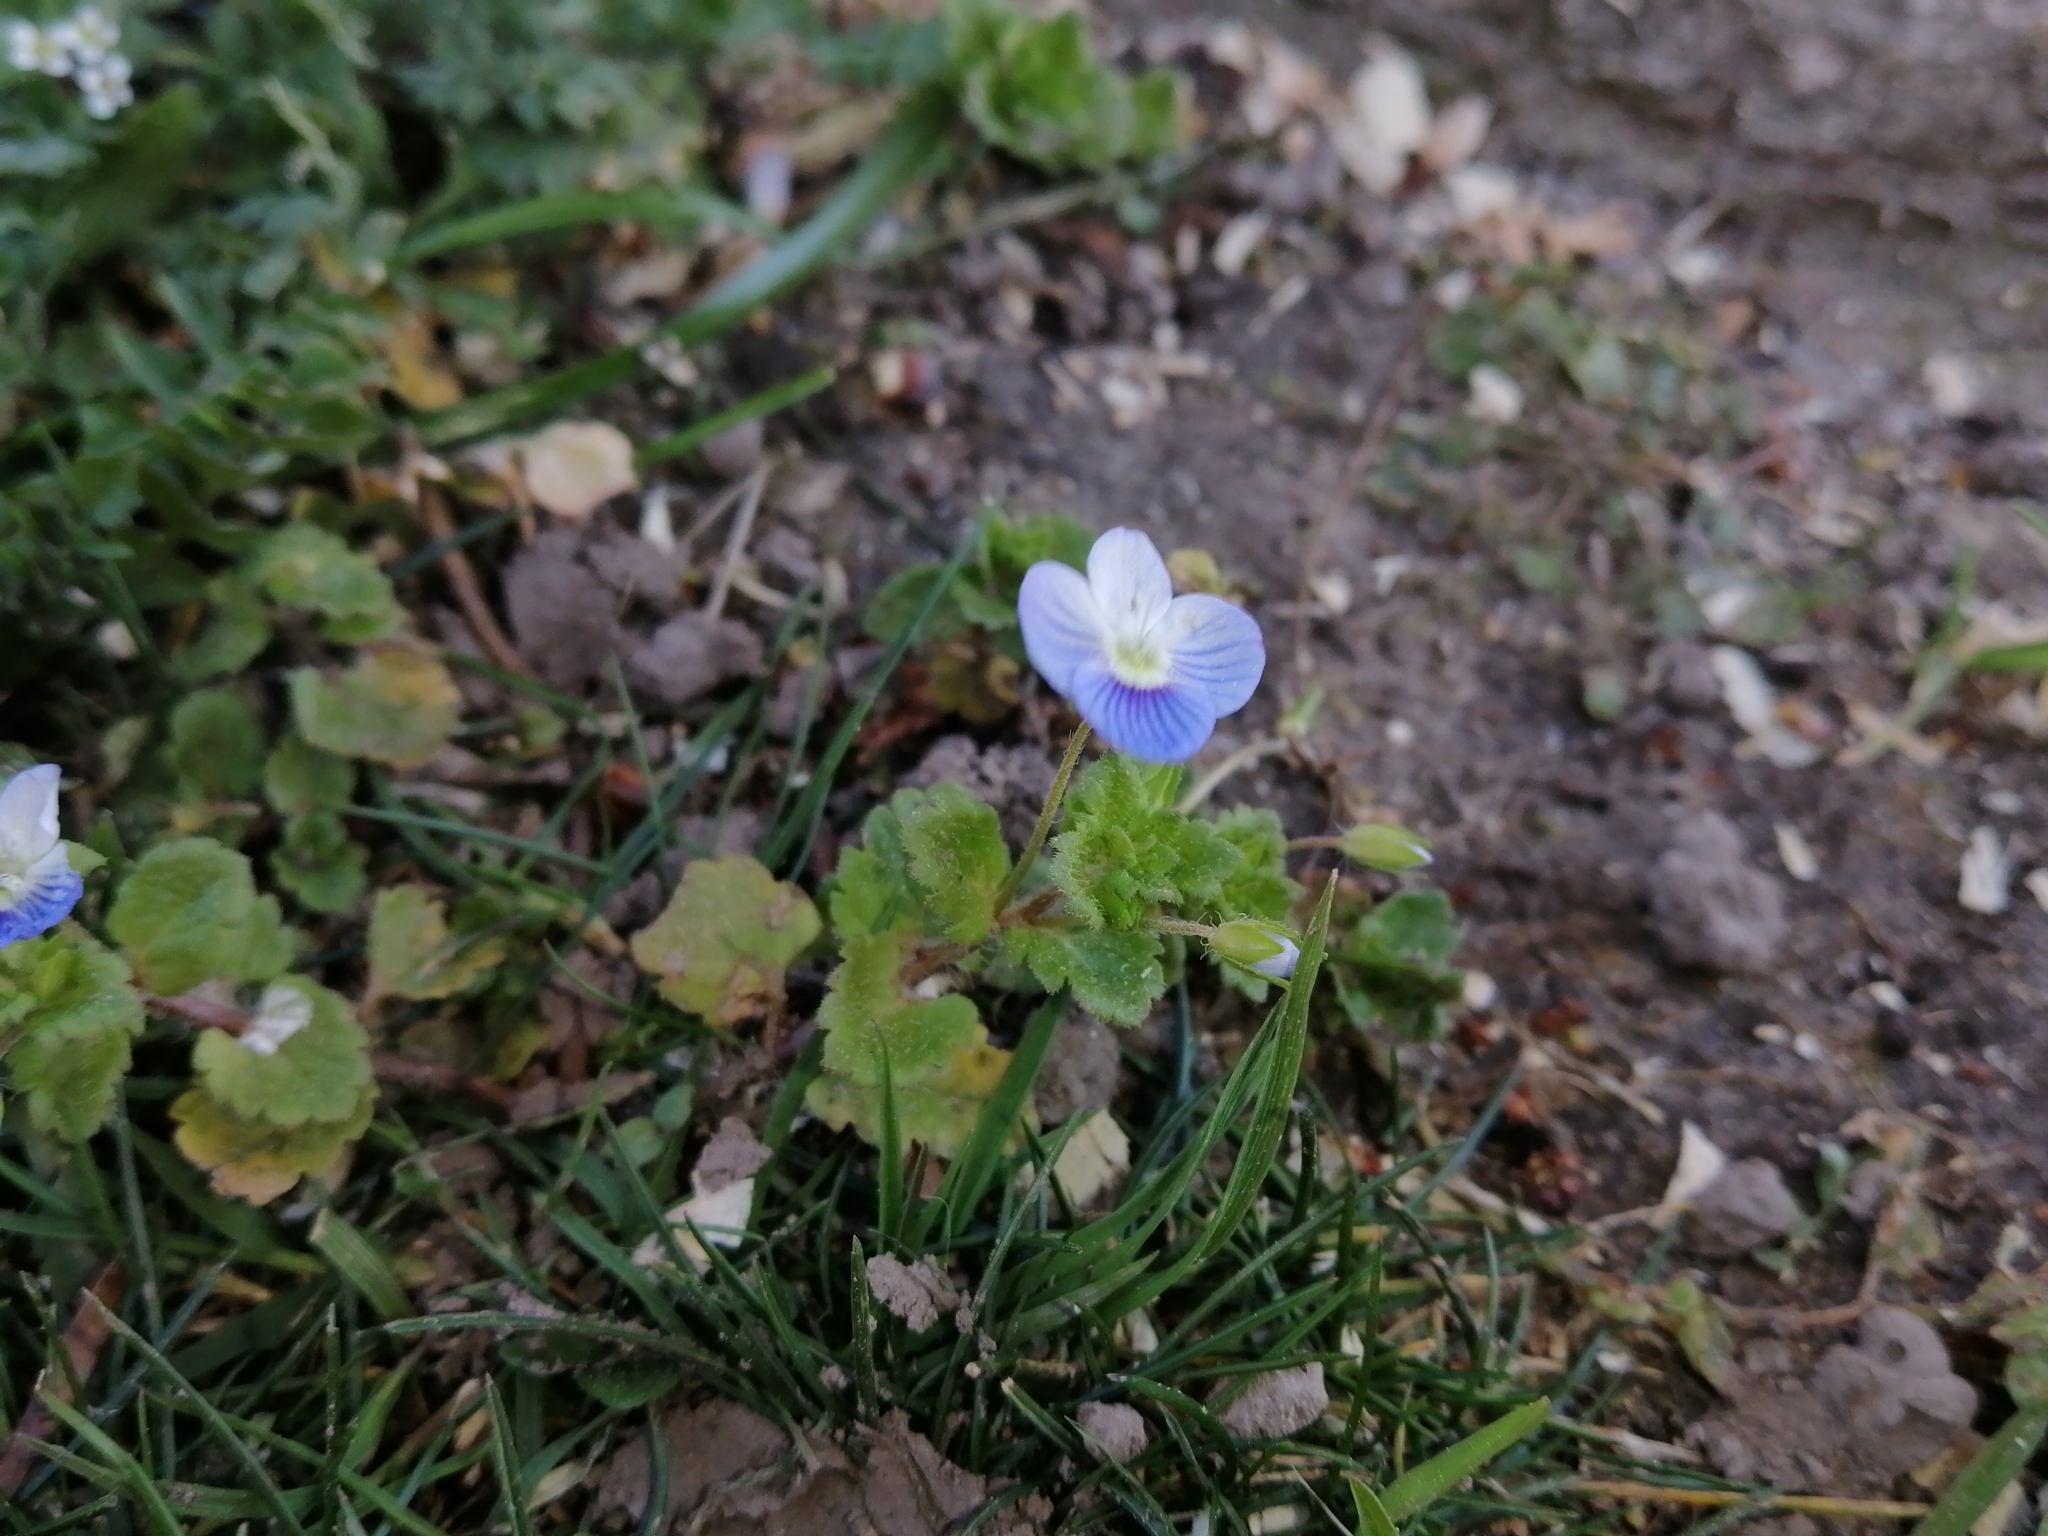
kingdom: Plantae
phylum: Tracheophyta
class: Magnoliopsida
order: Lamiales
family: Plantaginaceae
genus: Veronica
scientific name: Veronica persica
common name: Common field-speedwell
